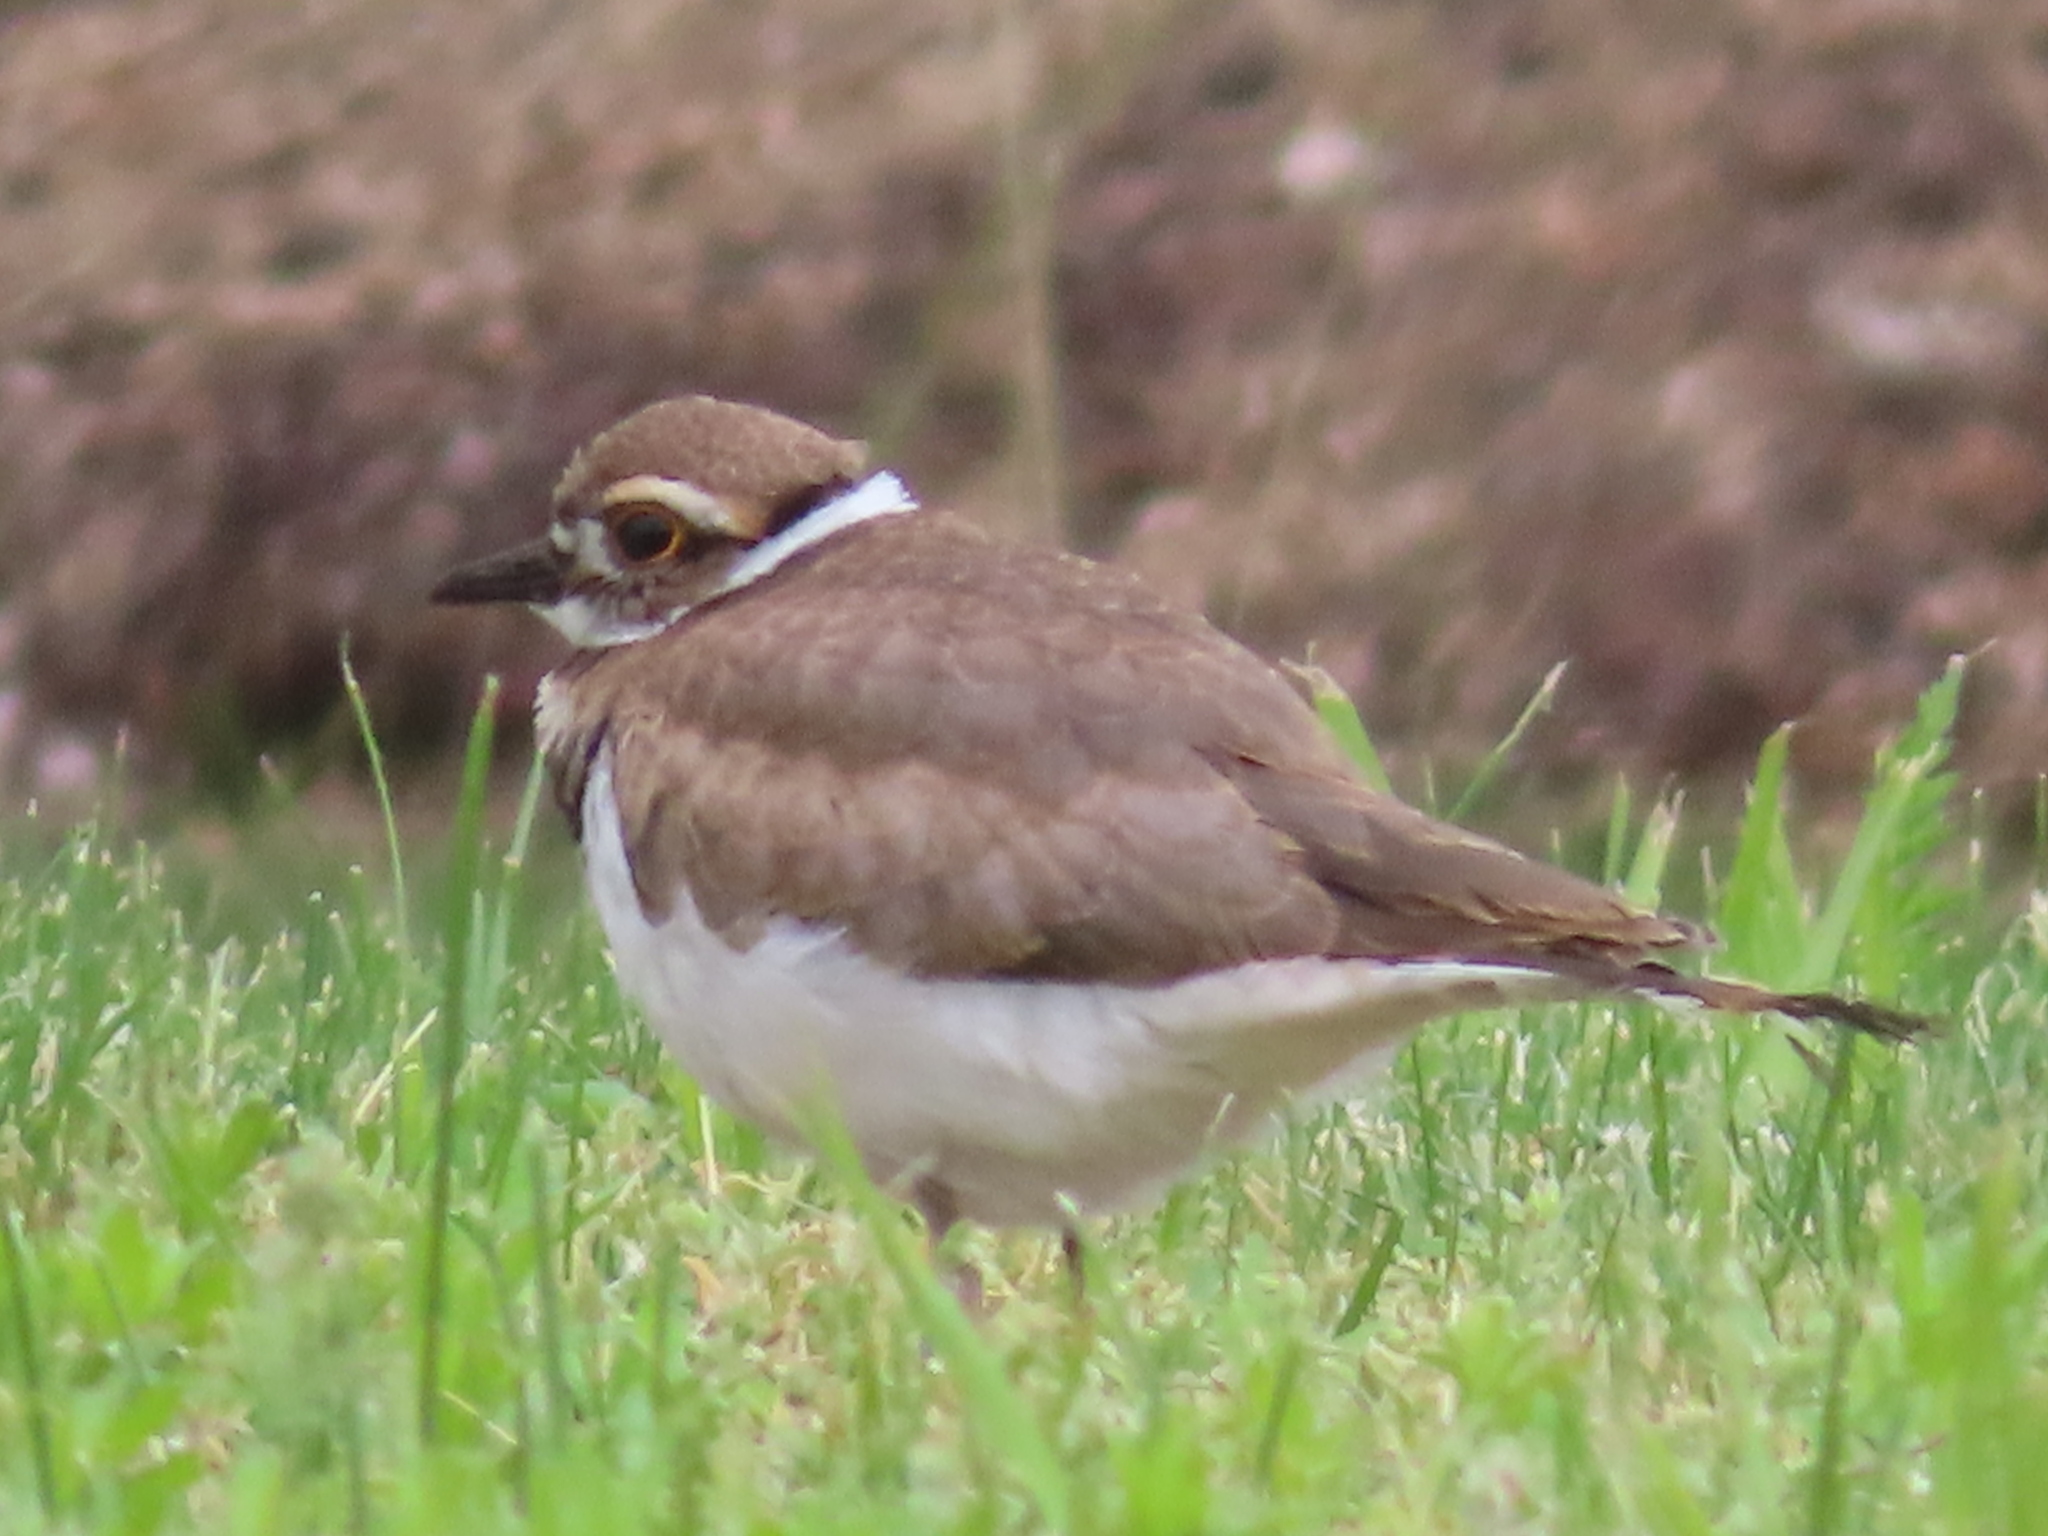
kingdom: Animalia
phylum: Chordata
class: Aves
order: Charadriiformes
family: Charadriidae
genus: Charadrius
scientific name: Charadrius vociferus
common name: Killdeer
